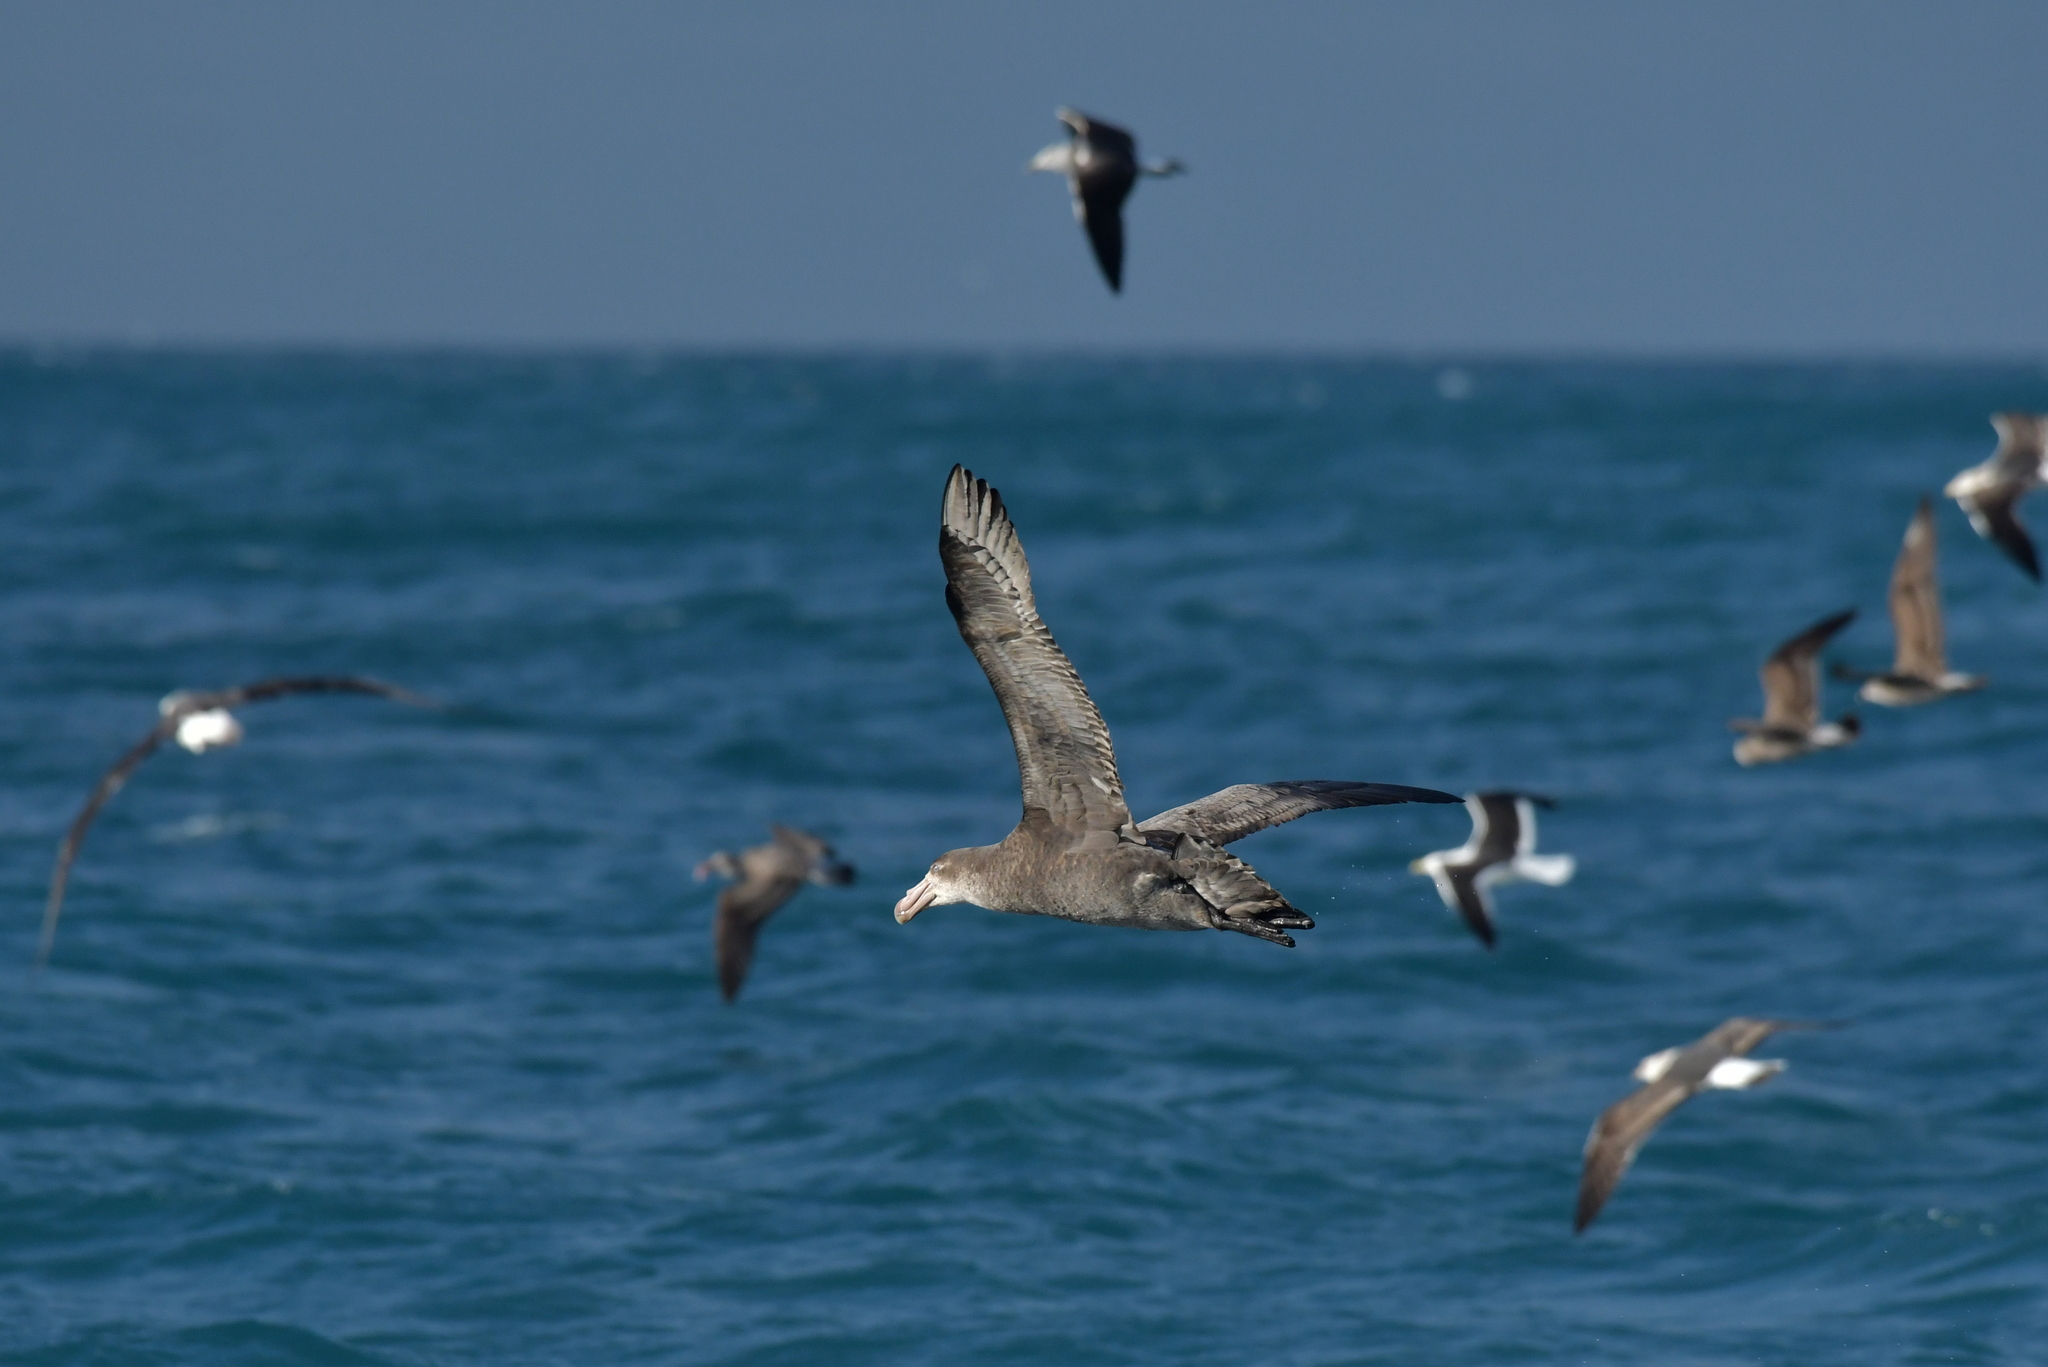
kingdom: Animalia
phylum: Chordata
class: Aves
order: Procellariiformes
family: Procellariidae
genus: Macronectes
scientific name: Macronectes halli
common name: Northern giant petrel
